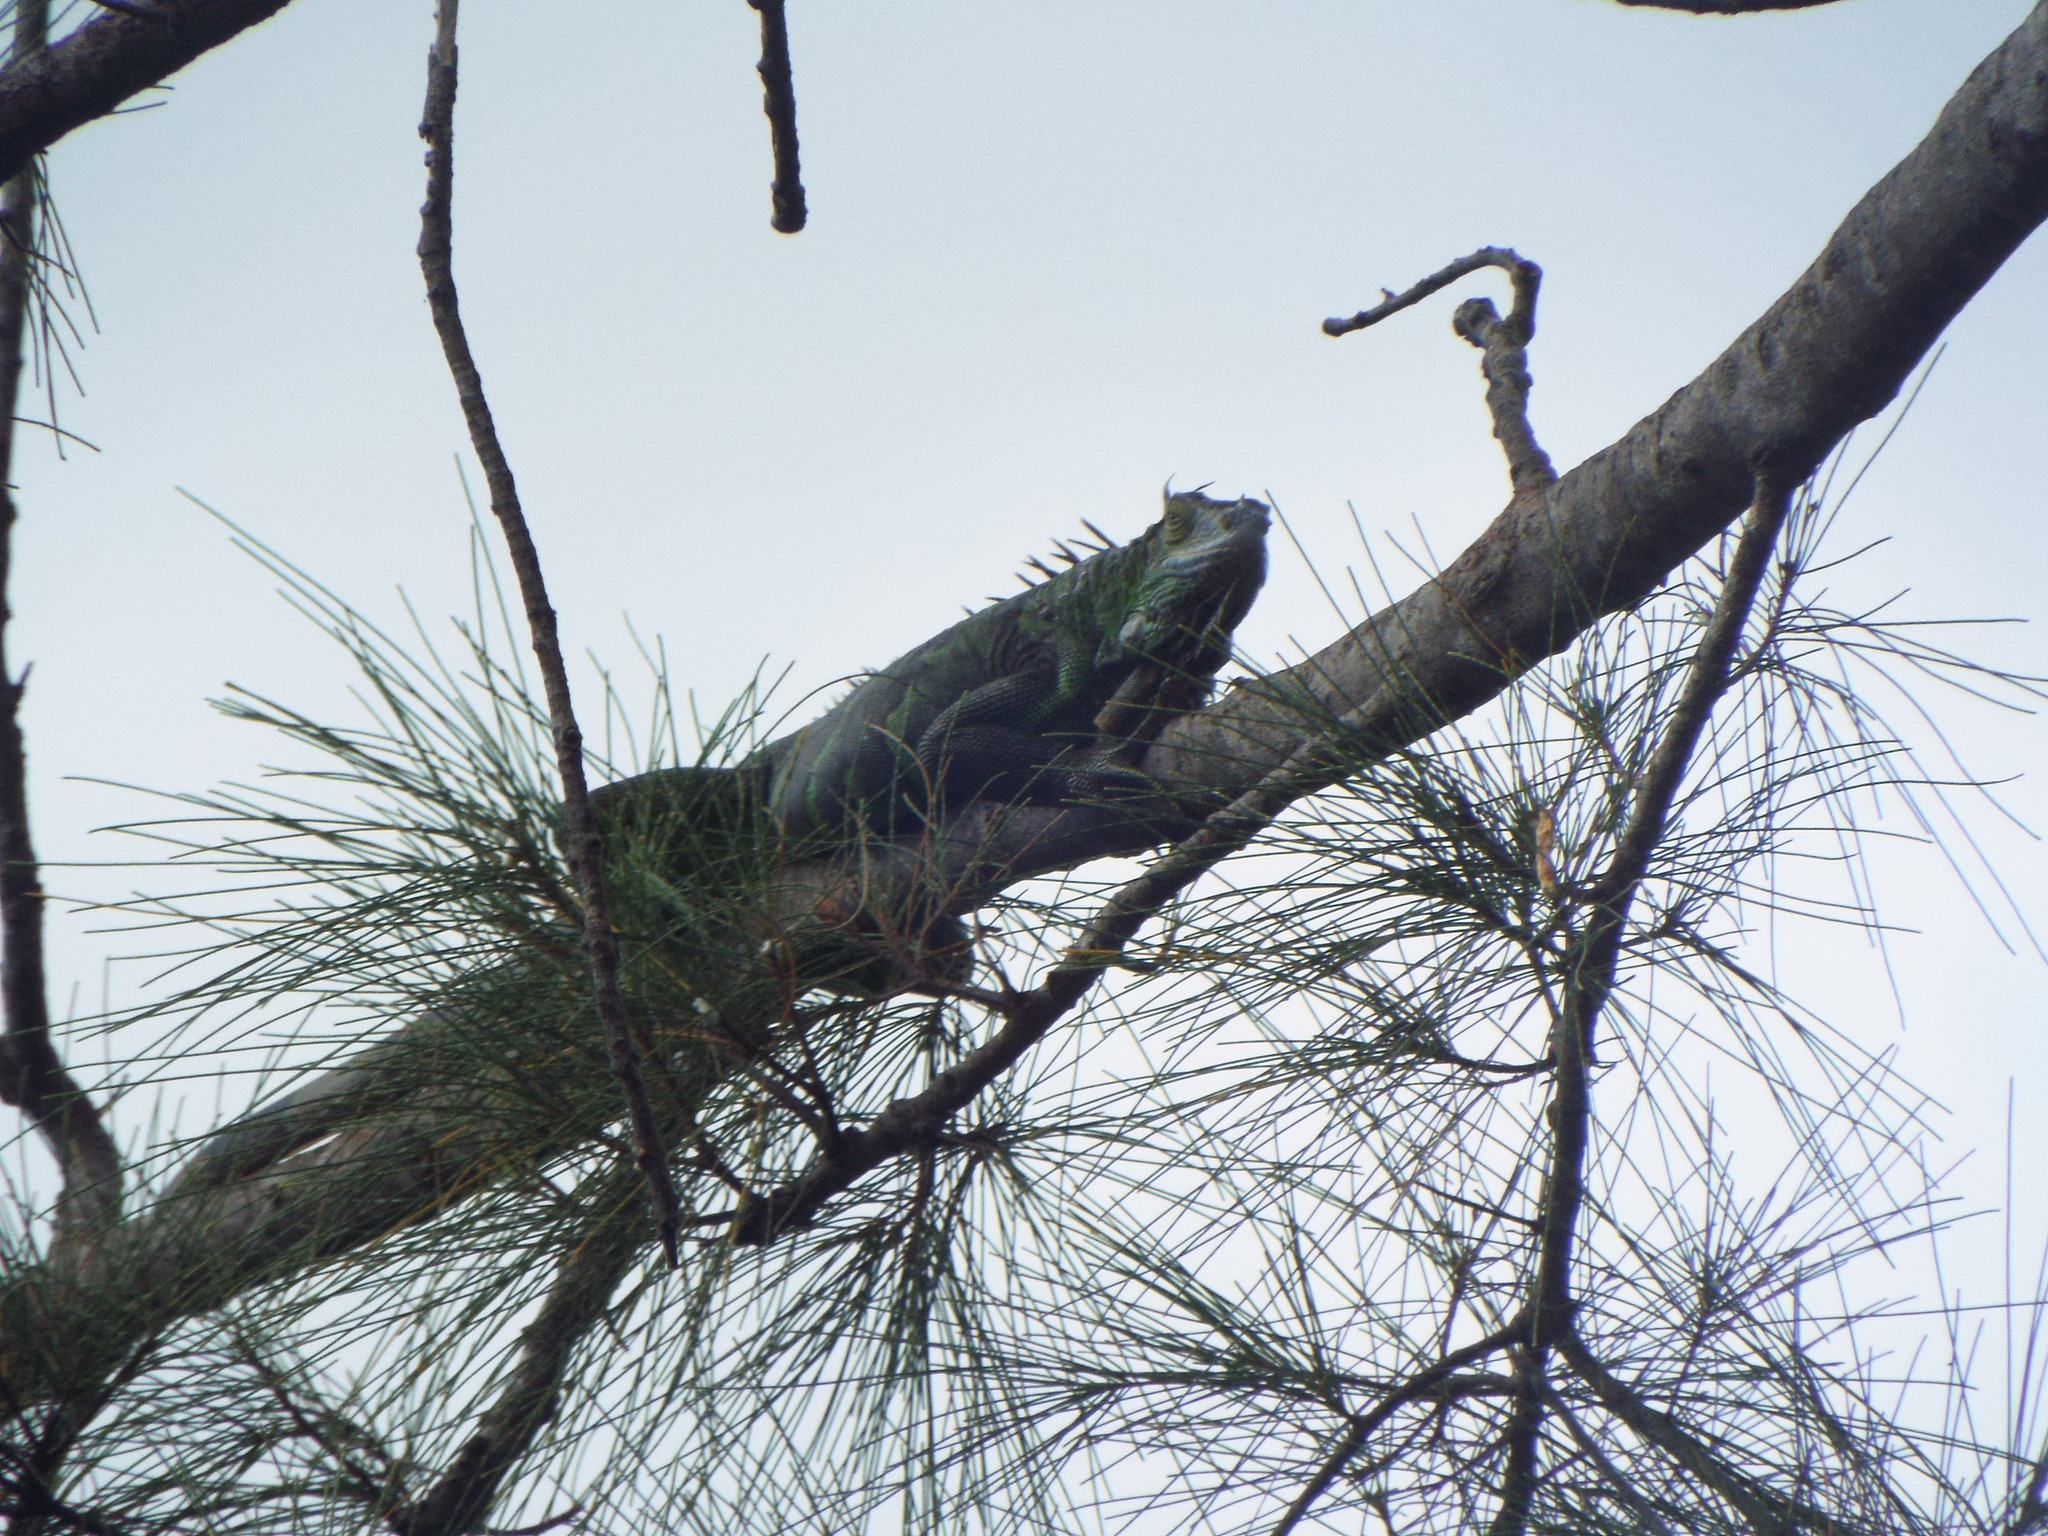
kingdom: Animalia
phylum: Chordata
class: Squamata
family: Iguanidae
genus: Iguana
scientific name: Iguana iguana
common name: Green iguana
